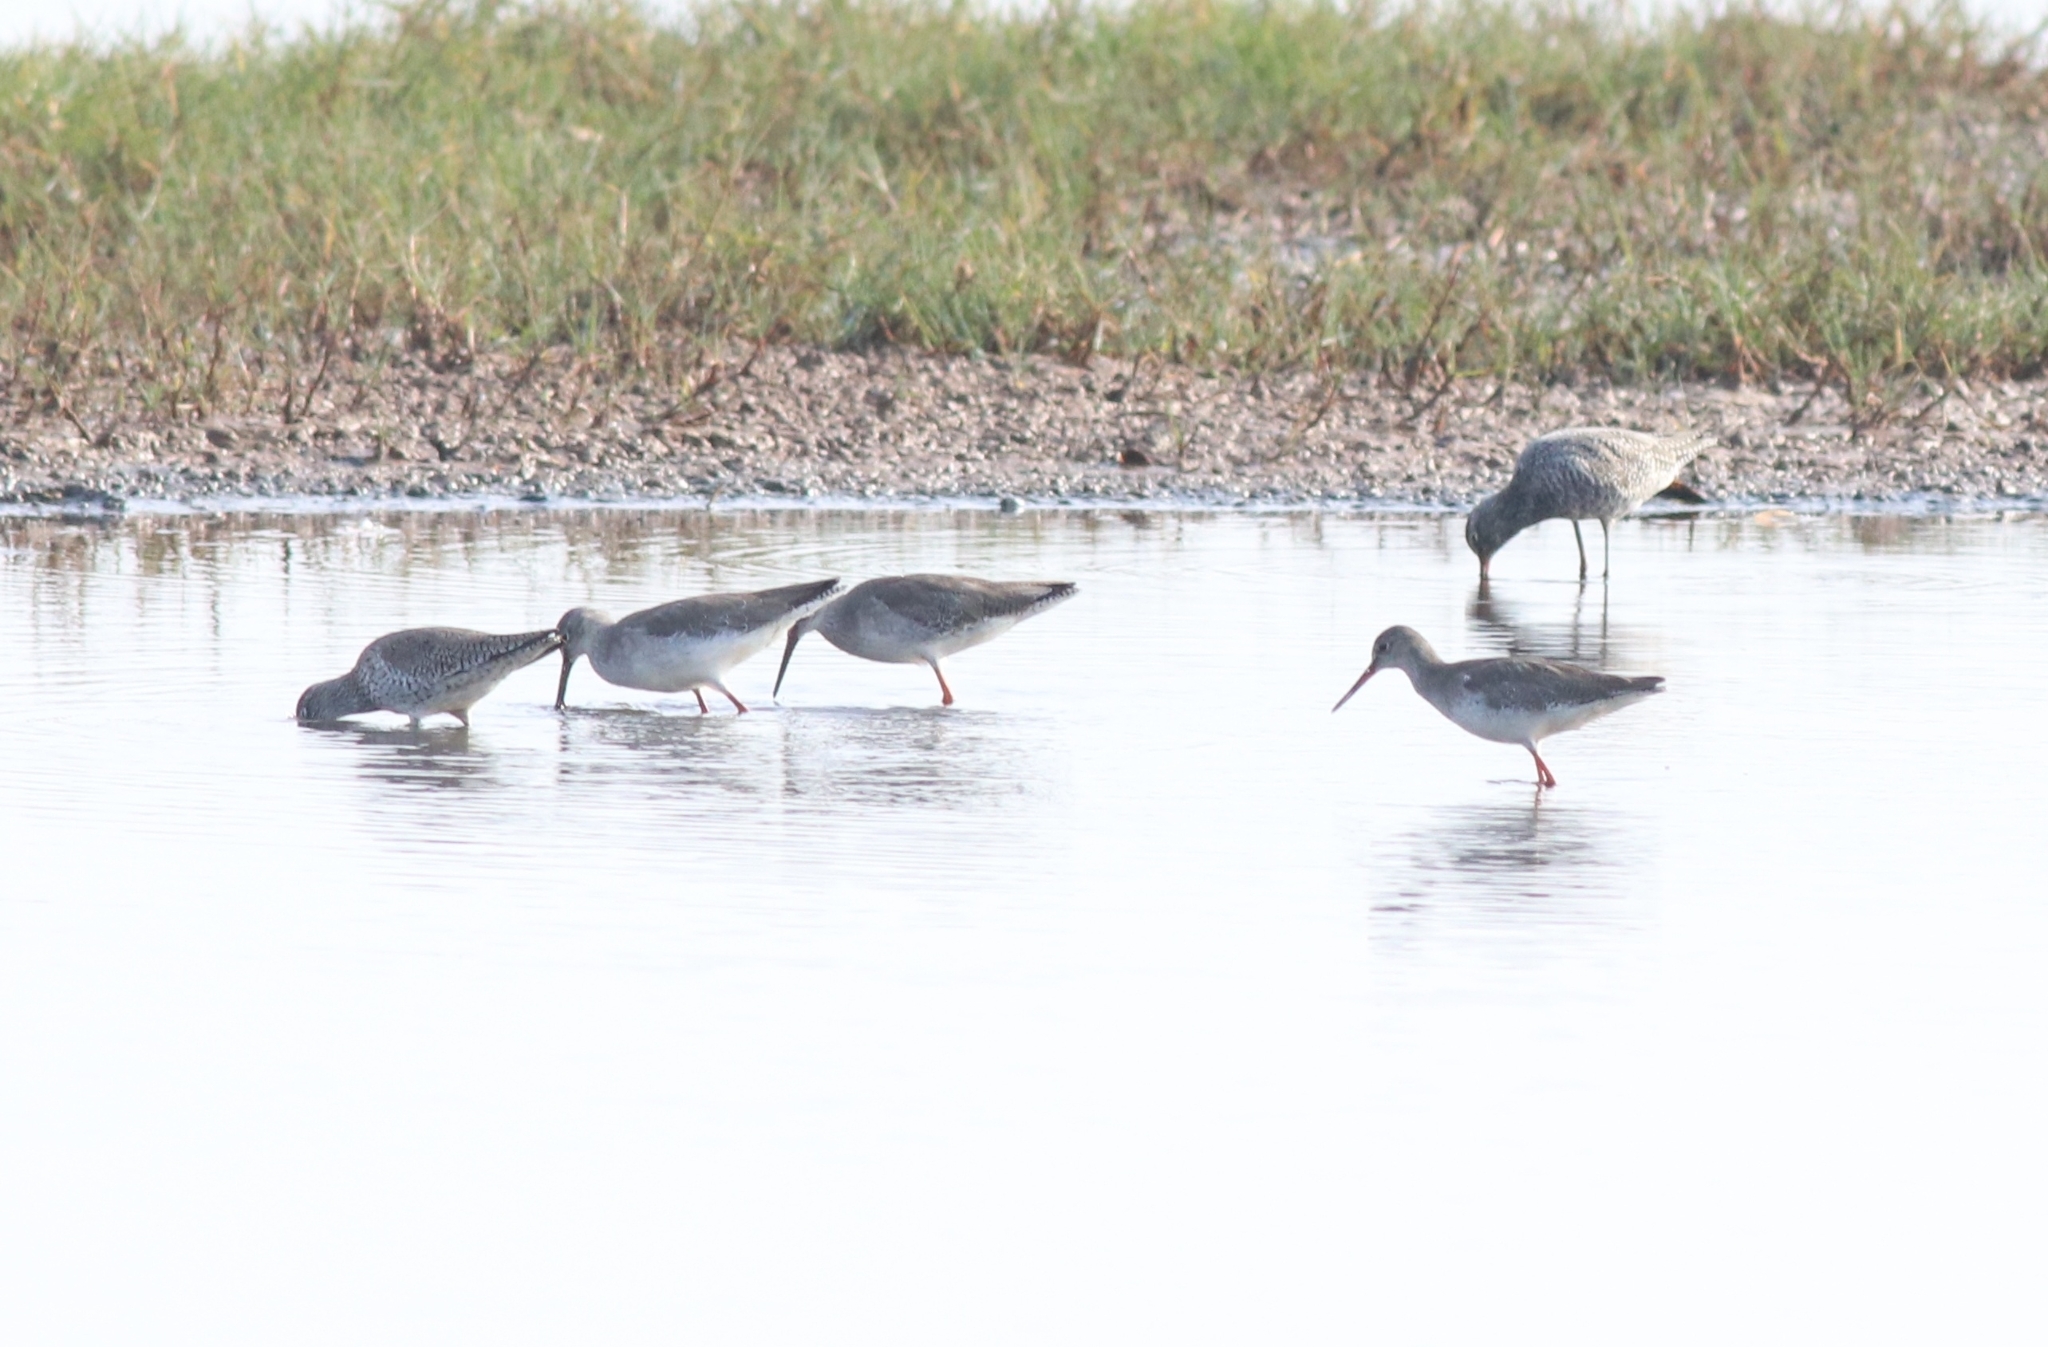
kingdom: Animalia
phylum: Chordata
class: Aves
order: Charadriiformes
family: Scolopacidae
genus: Tringa
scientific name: Tringa totanus
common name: Common redshank
